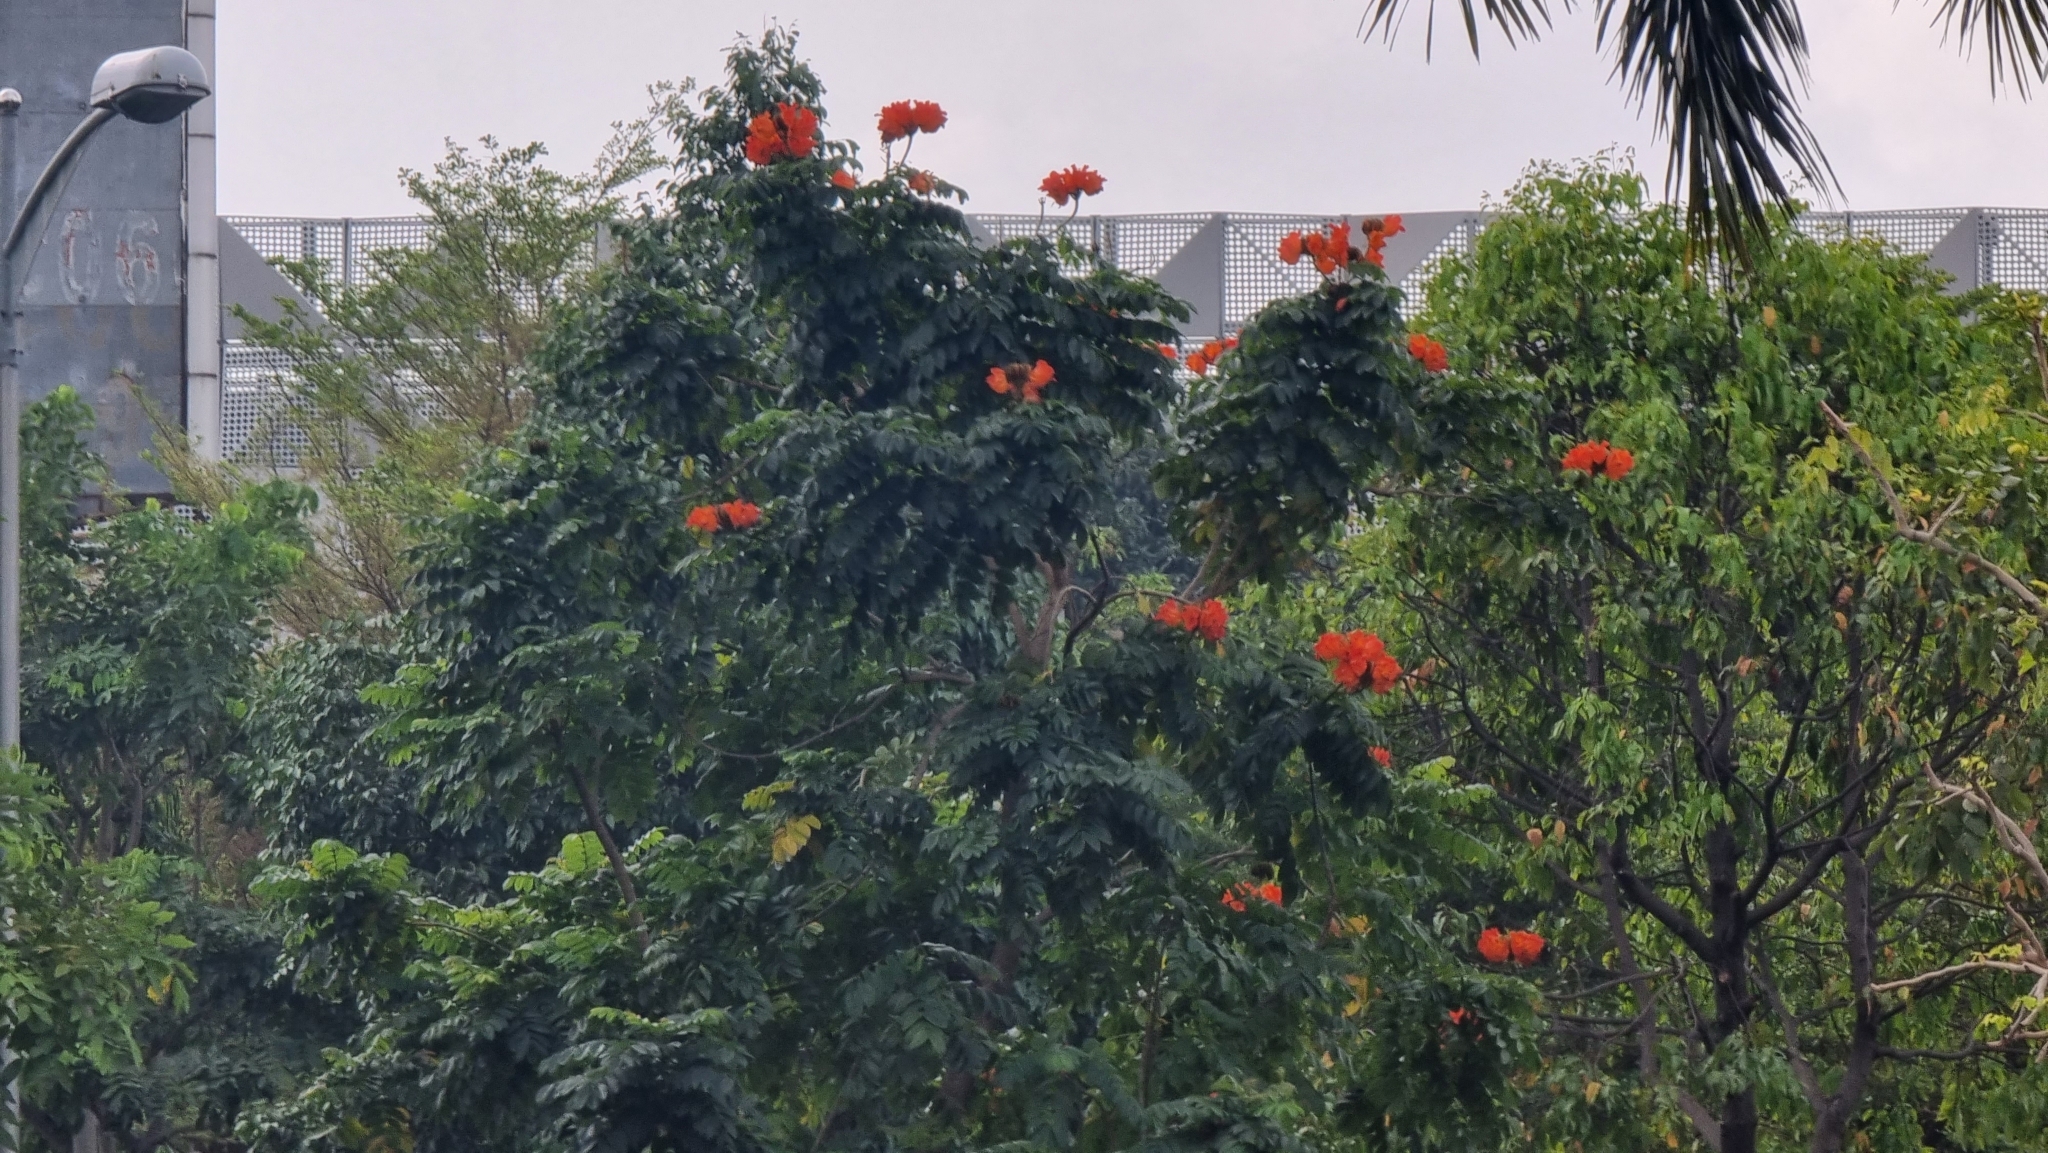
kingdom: Plantae
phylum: Tracheophyta
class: Magnoliopsida
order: Lamiales
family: Bignoniaceae
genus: Spathodea
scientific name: Spathodea campanulata
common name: African tuliptree
